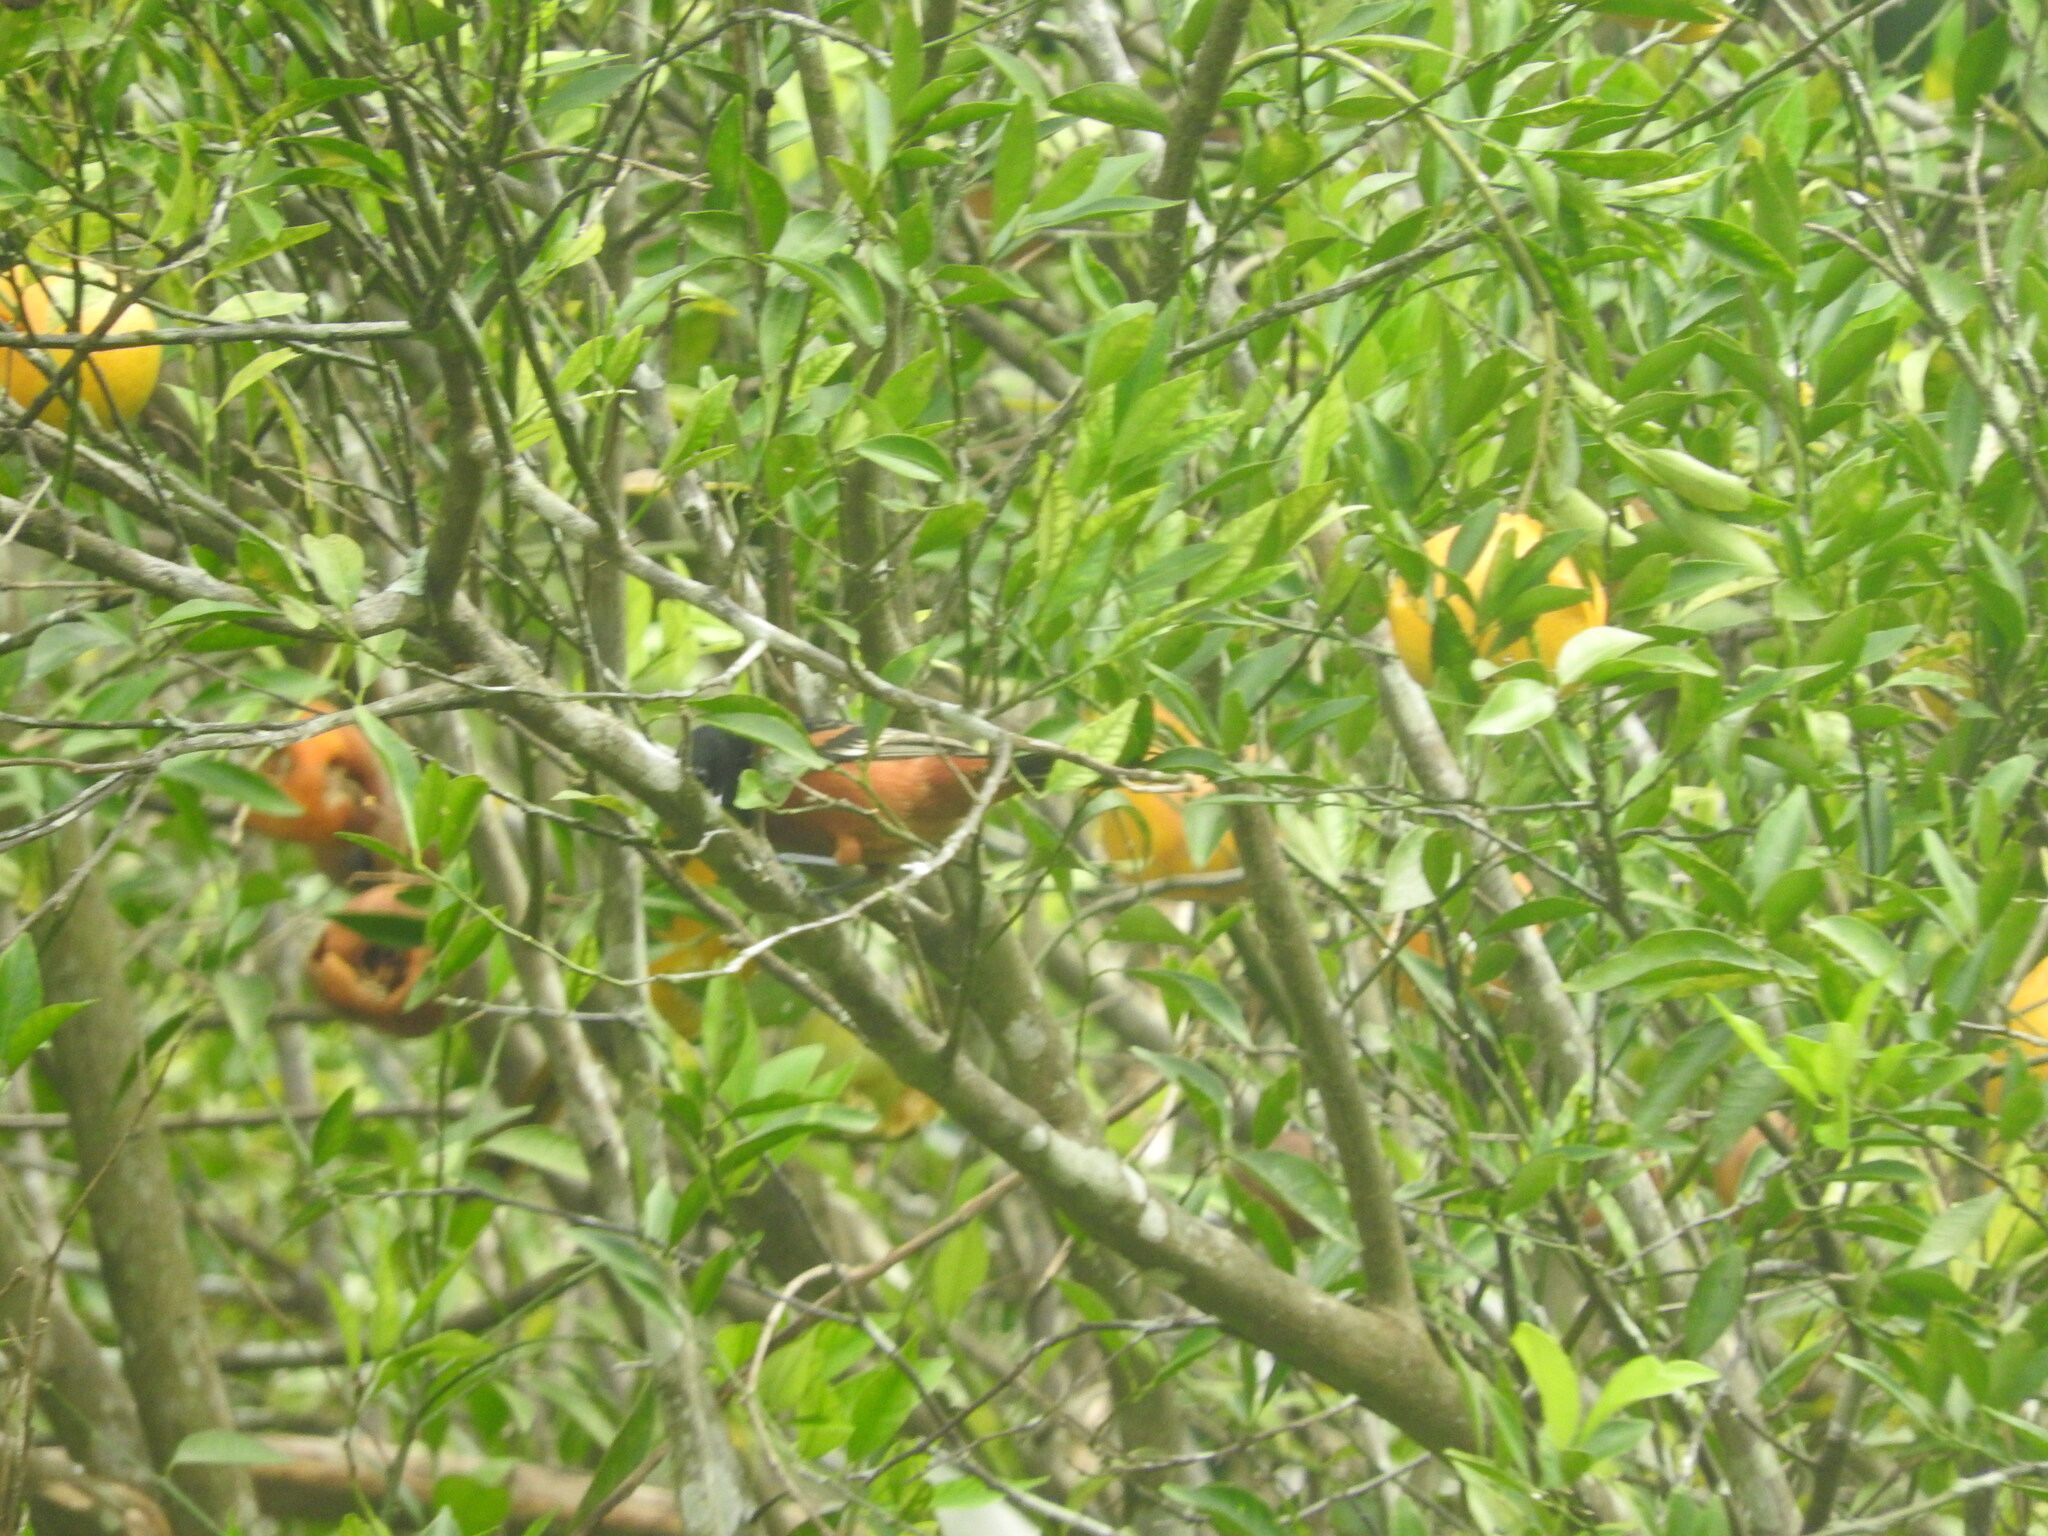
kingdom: Animalia
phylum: Chordata
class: Aves
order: Passeriformes
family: Icteridae
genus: Icterus
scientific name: Icterus spurius
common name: Orchard oriole
